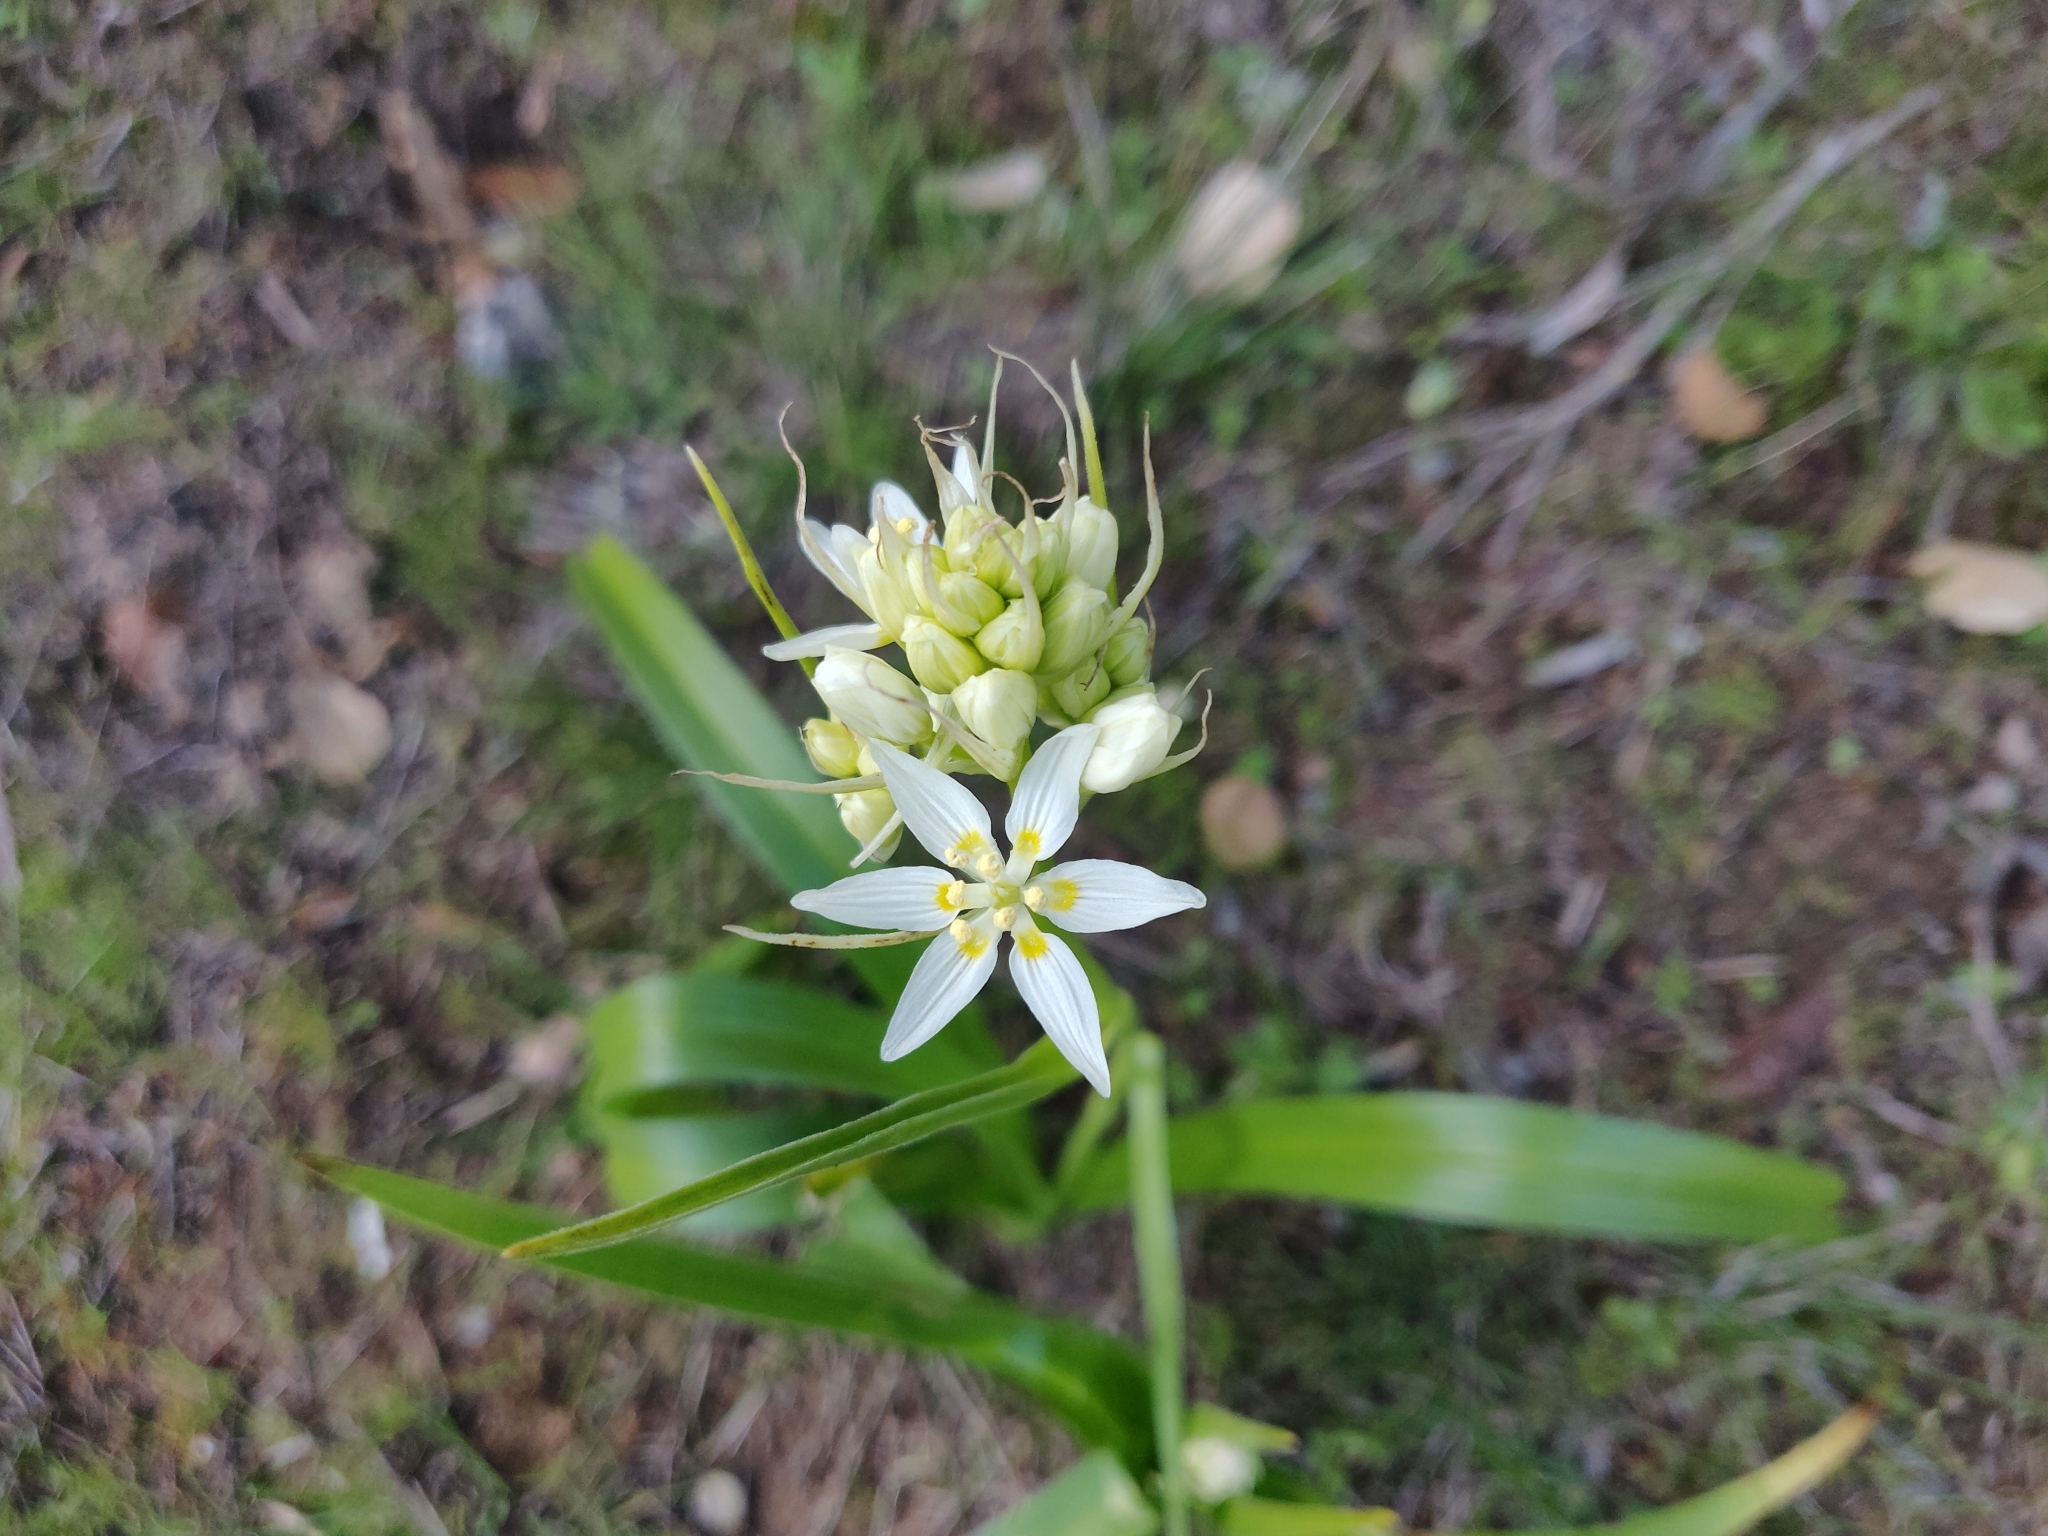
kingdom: Plantae
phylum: Tracheophyta
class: Liliopsida
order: Liliales
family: Melanthiaceae
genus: Toxicoscordion
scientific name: Toxicoscordion fremontii
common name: Fremont's death camas
